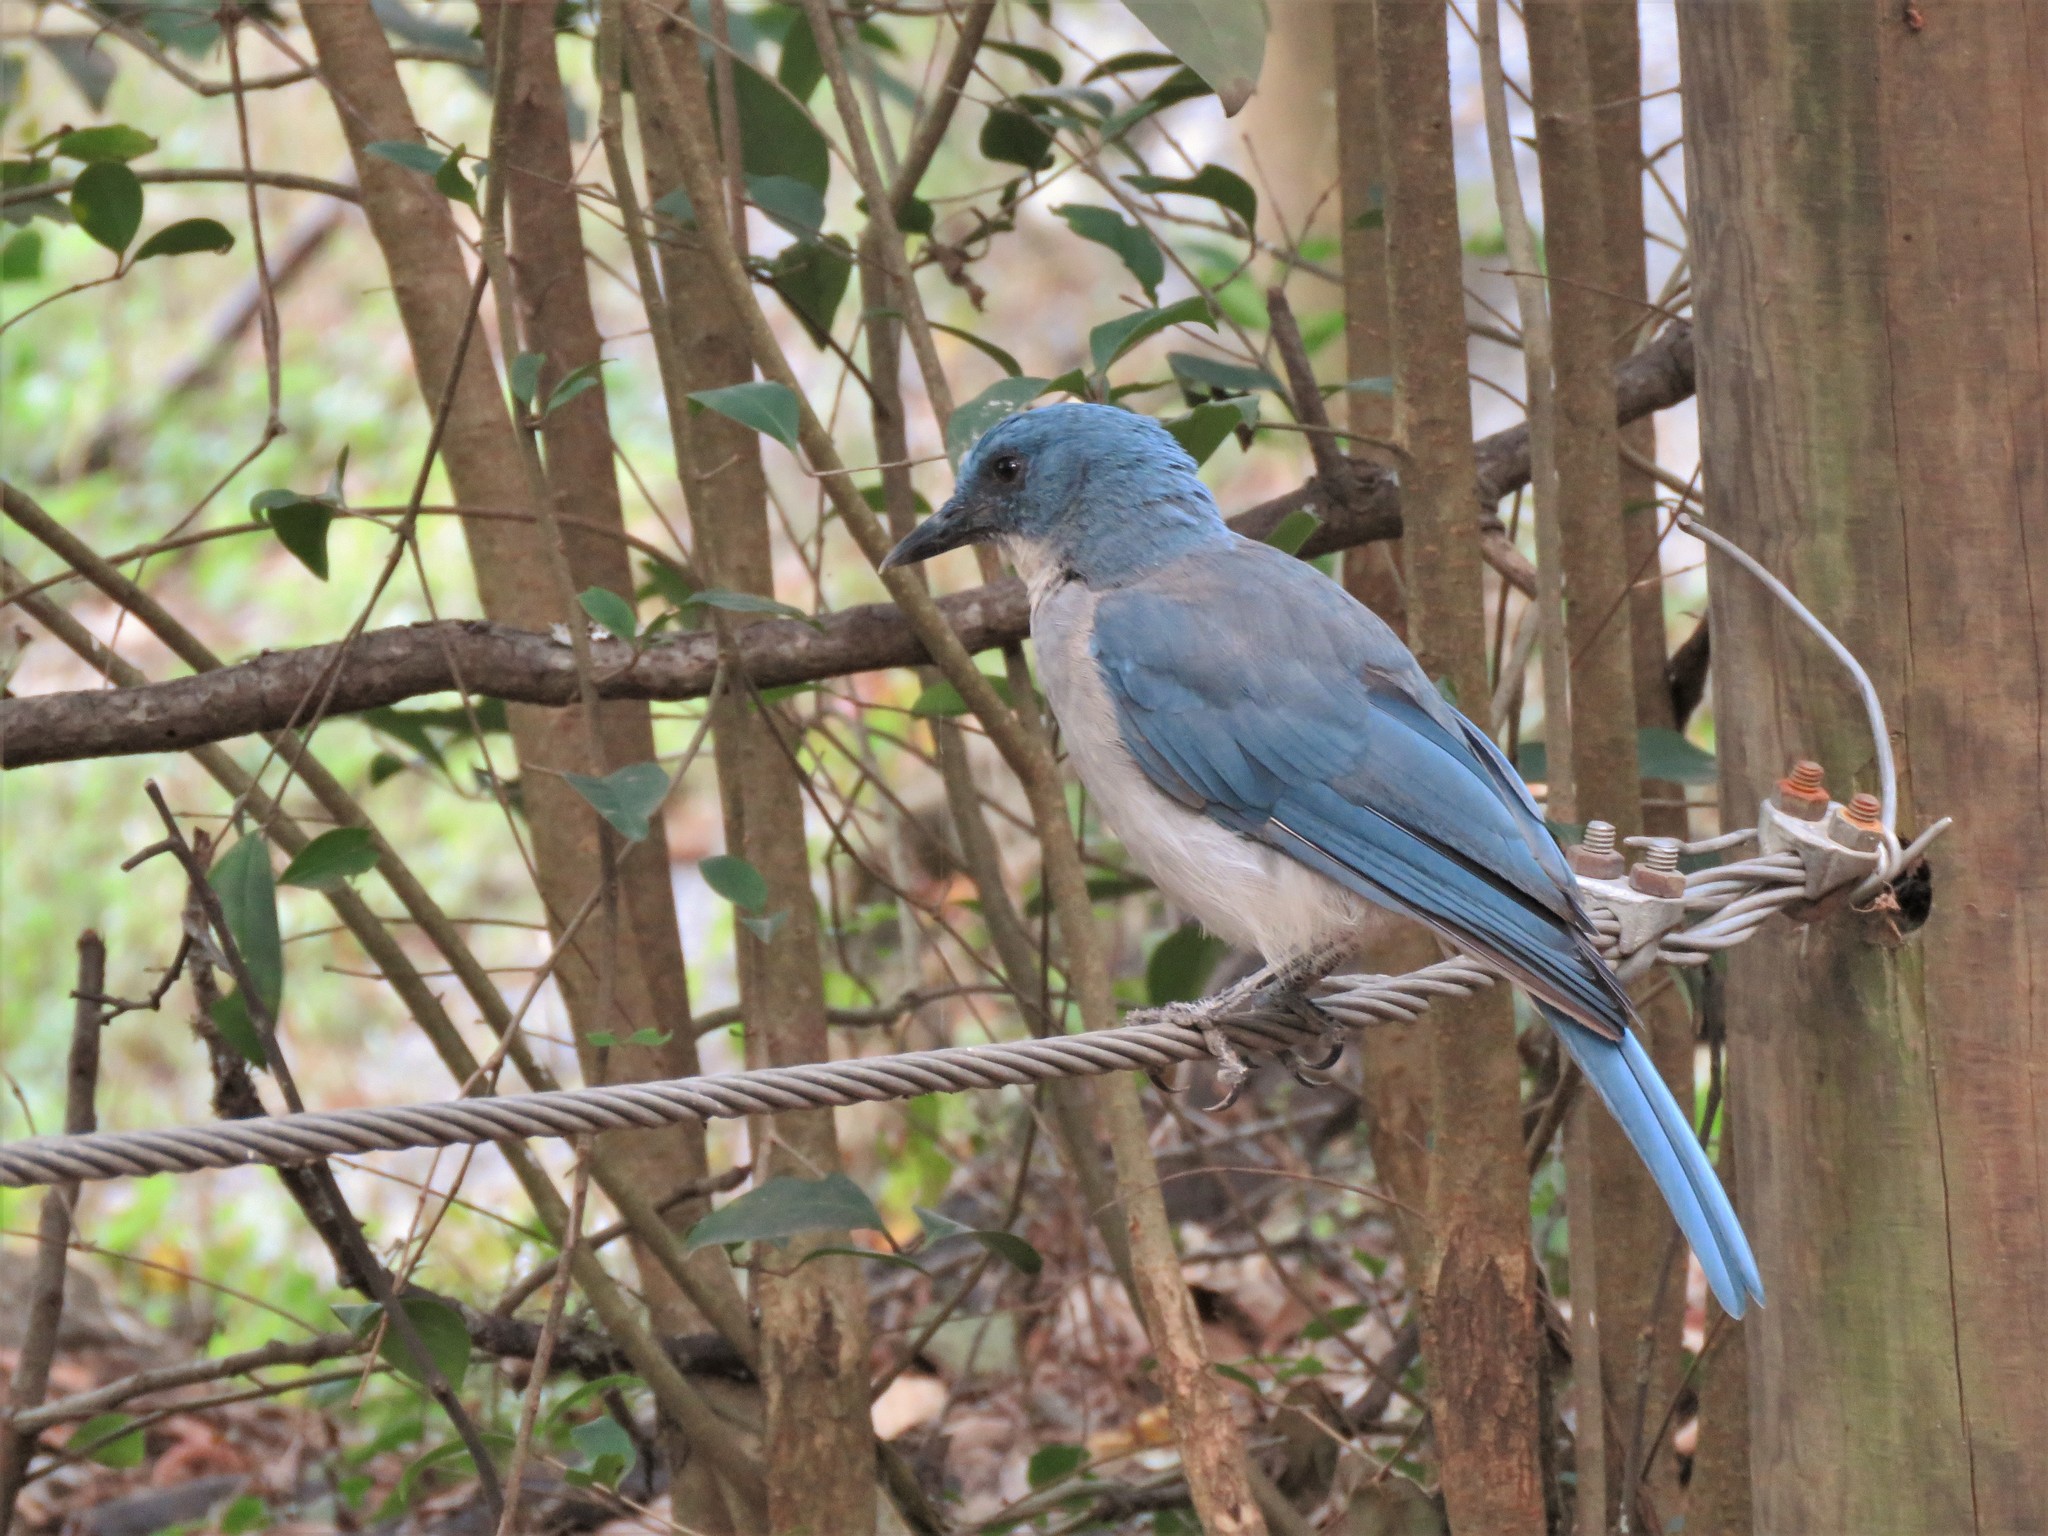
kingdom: Animalia
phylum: Chordata
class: Aves
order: Passeriformes
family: Corvidae
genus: Aphelocoma
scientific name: Aphelocoma wollweberi
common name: Mexican jay
